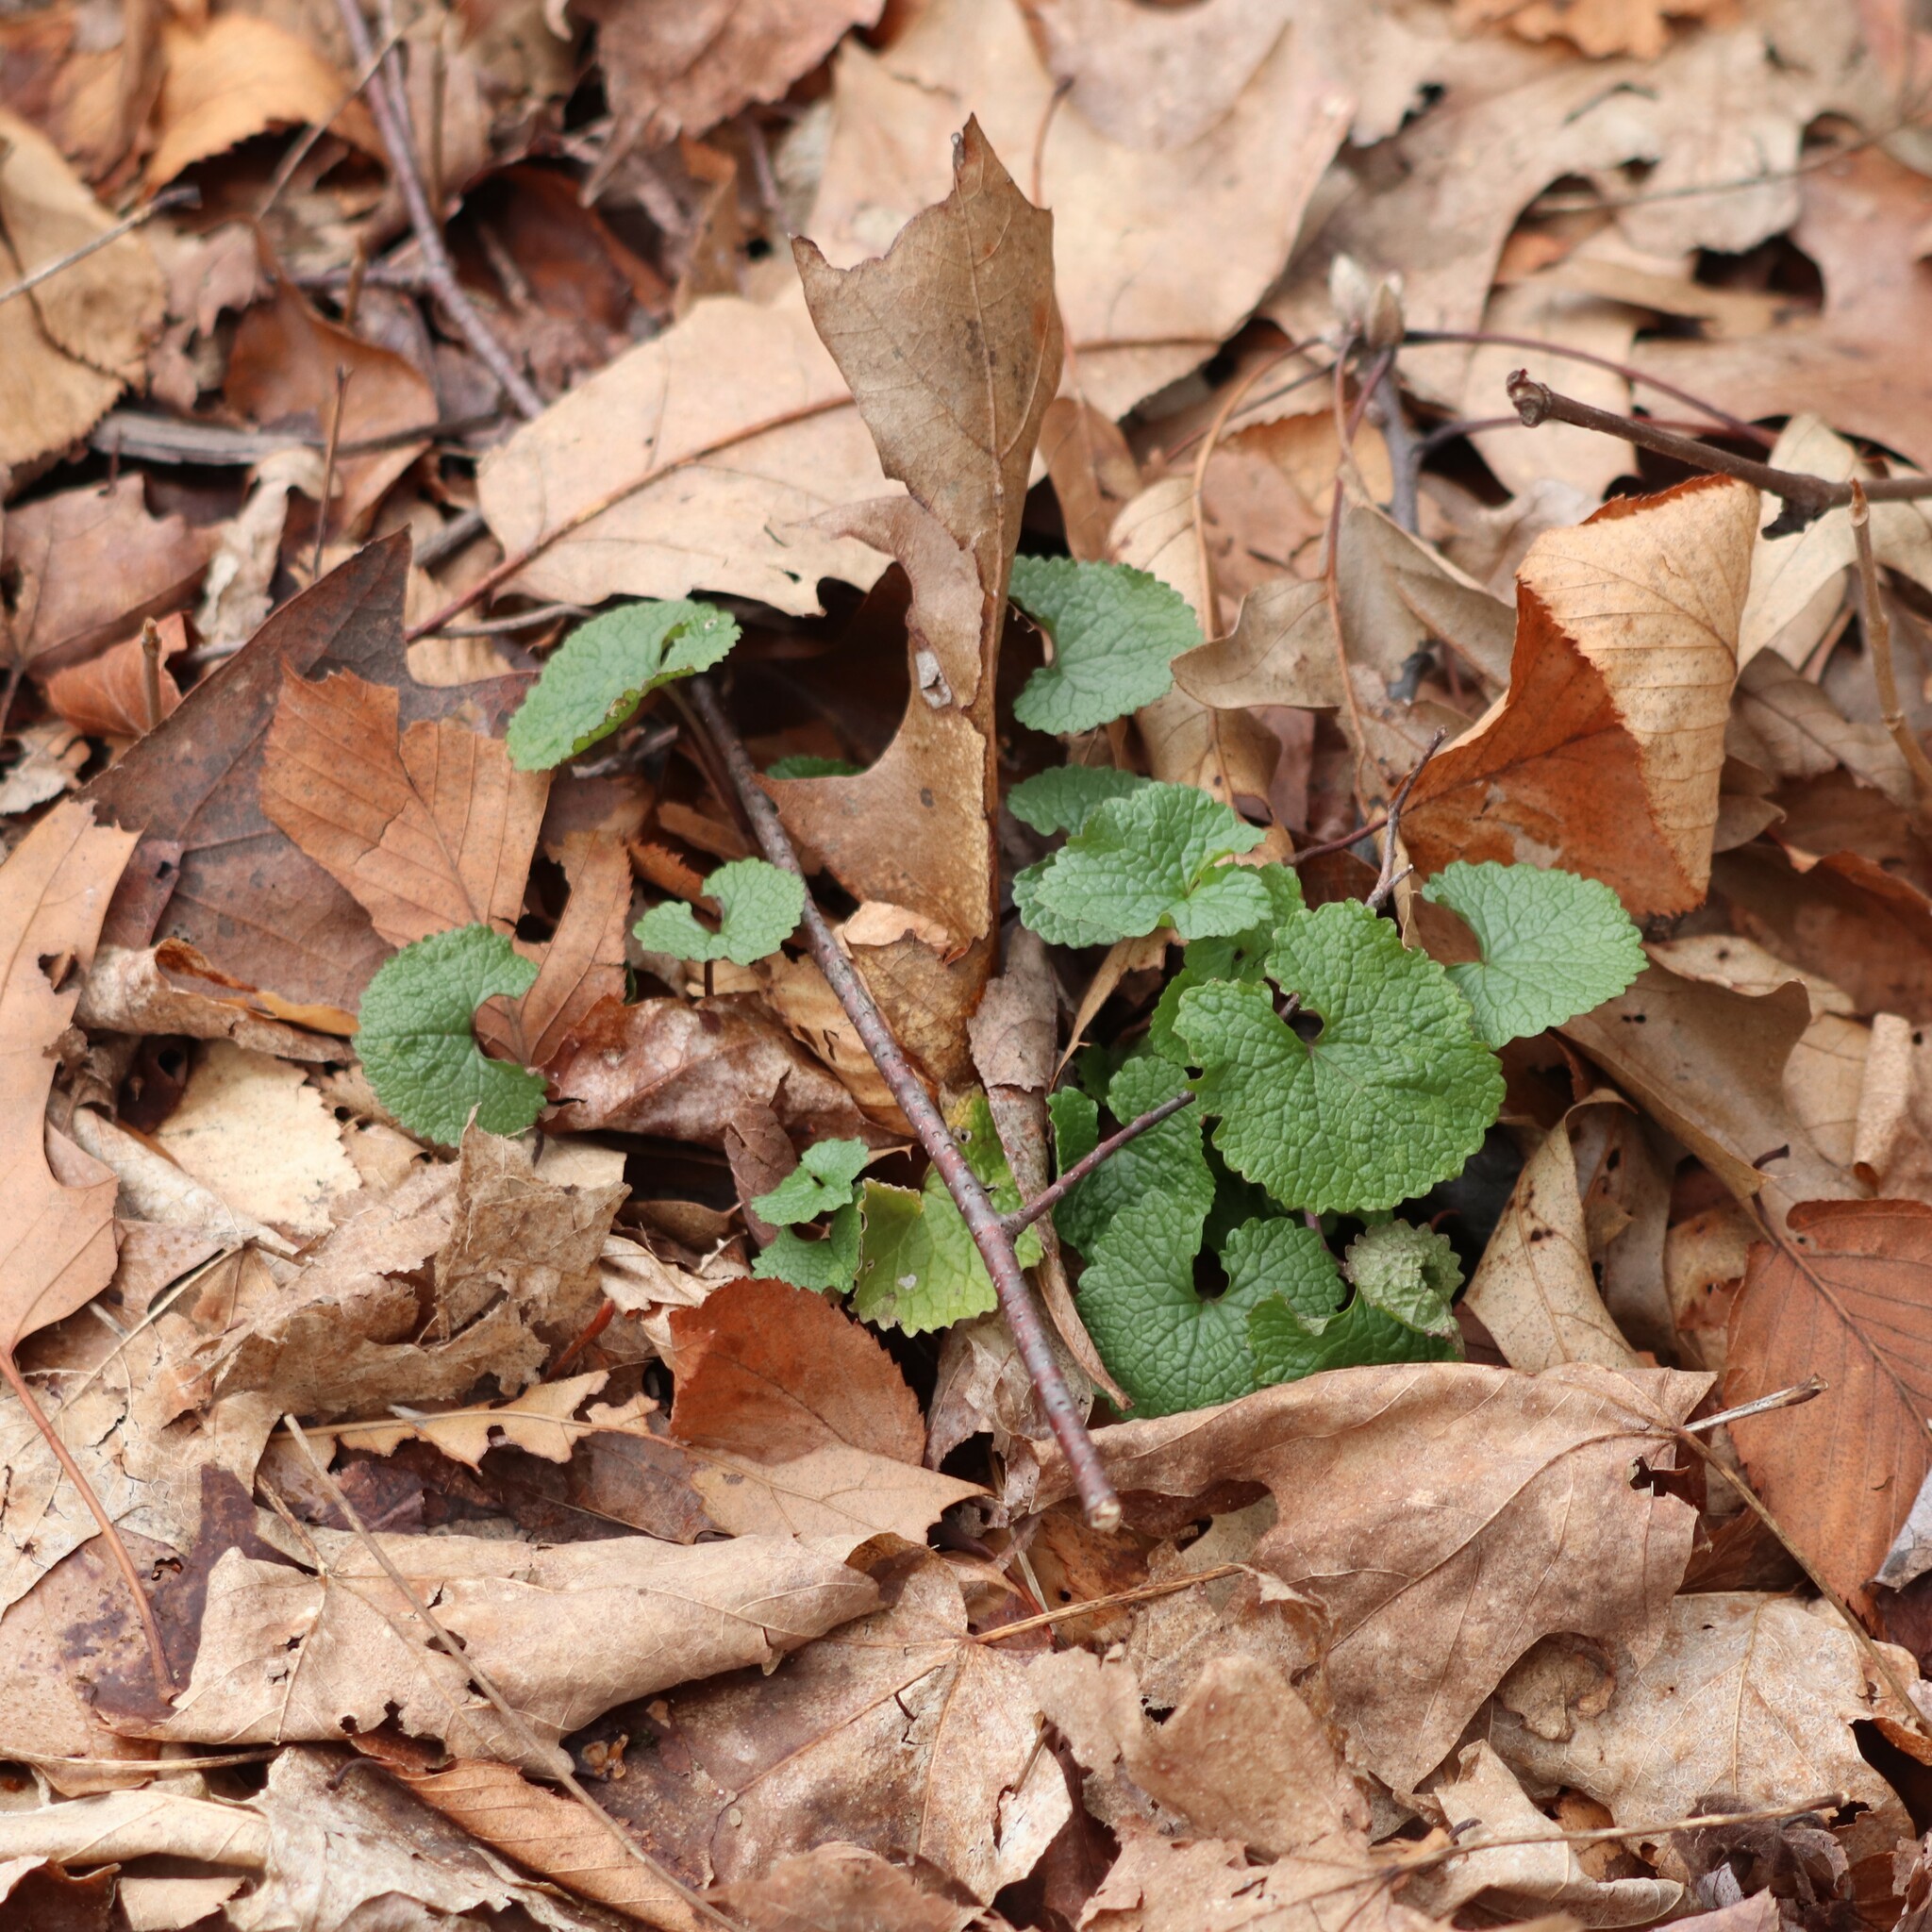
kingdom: Plantae
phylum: Tracheophyta
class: Magnoliopsida
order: Brassicales
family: Brassicaceae
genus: Alliaria
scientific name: Alliaria petiolata
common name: Garlic mustard
